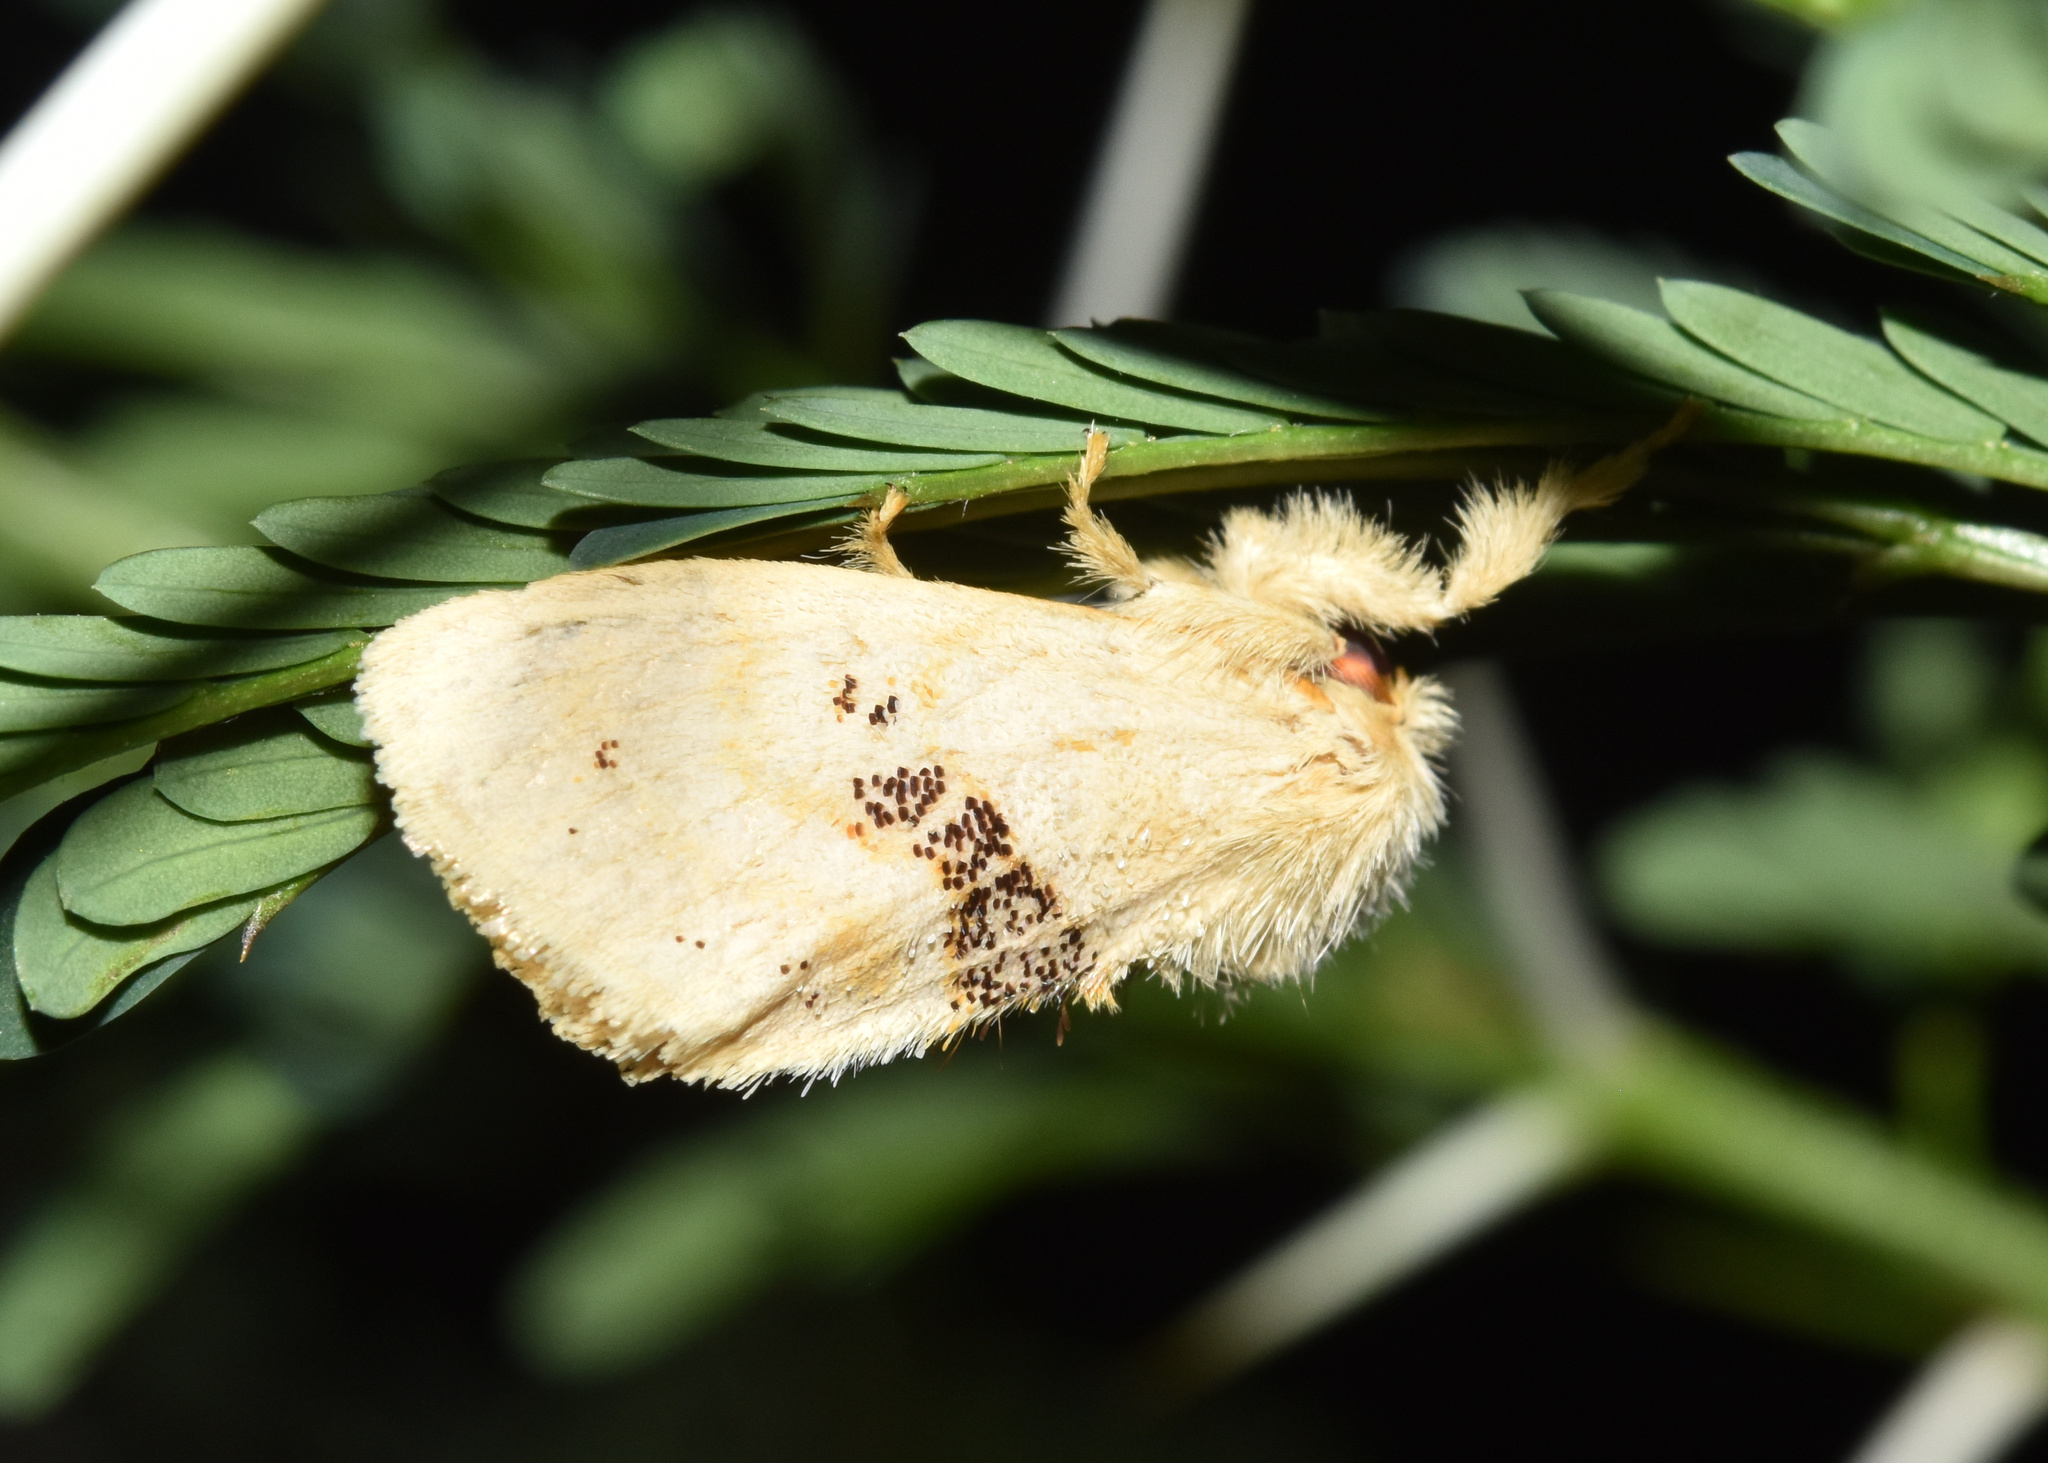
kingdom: Animalia
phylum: Arthropoda
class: Insecta
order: Lepidoptera
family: Erebidae
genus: Euproctis
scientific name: Euproctis Knappetra fasciata
